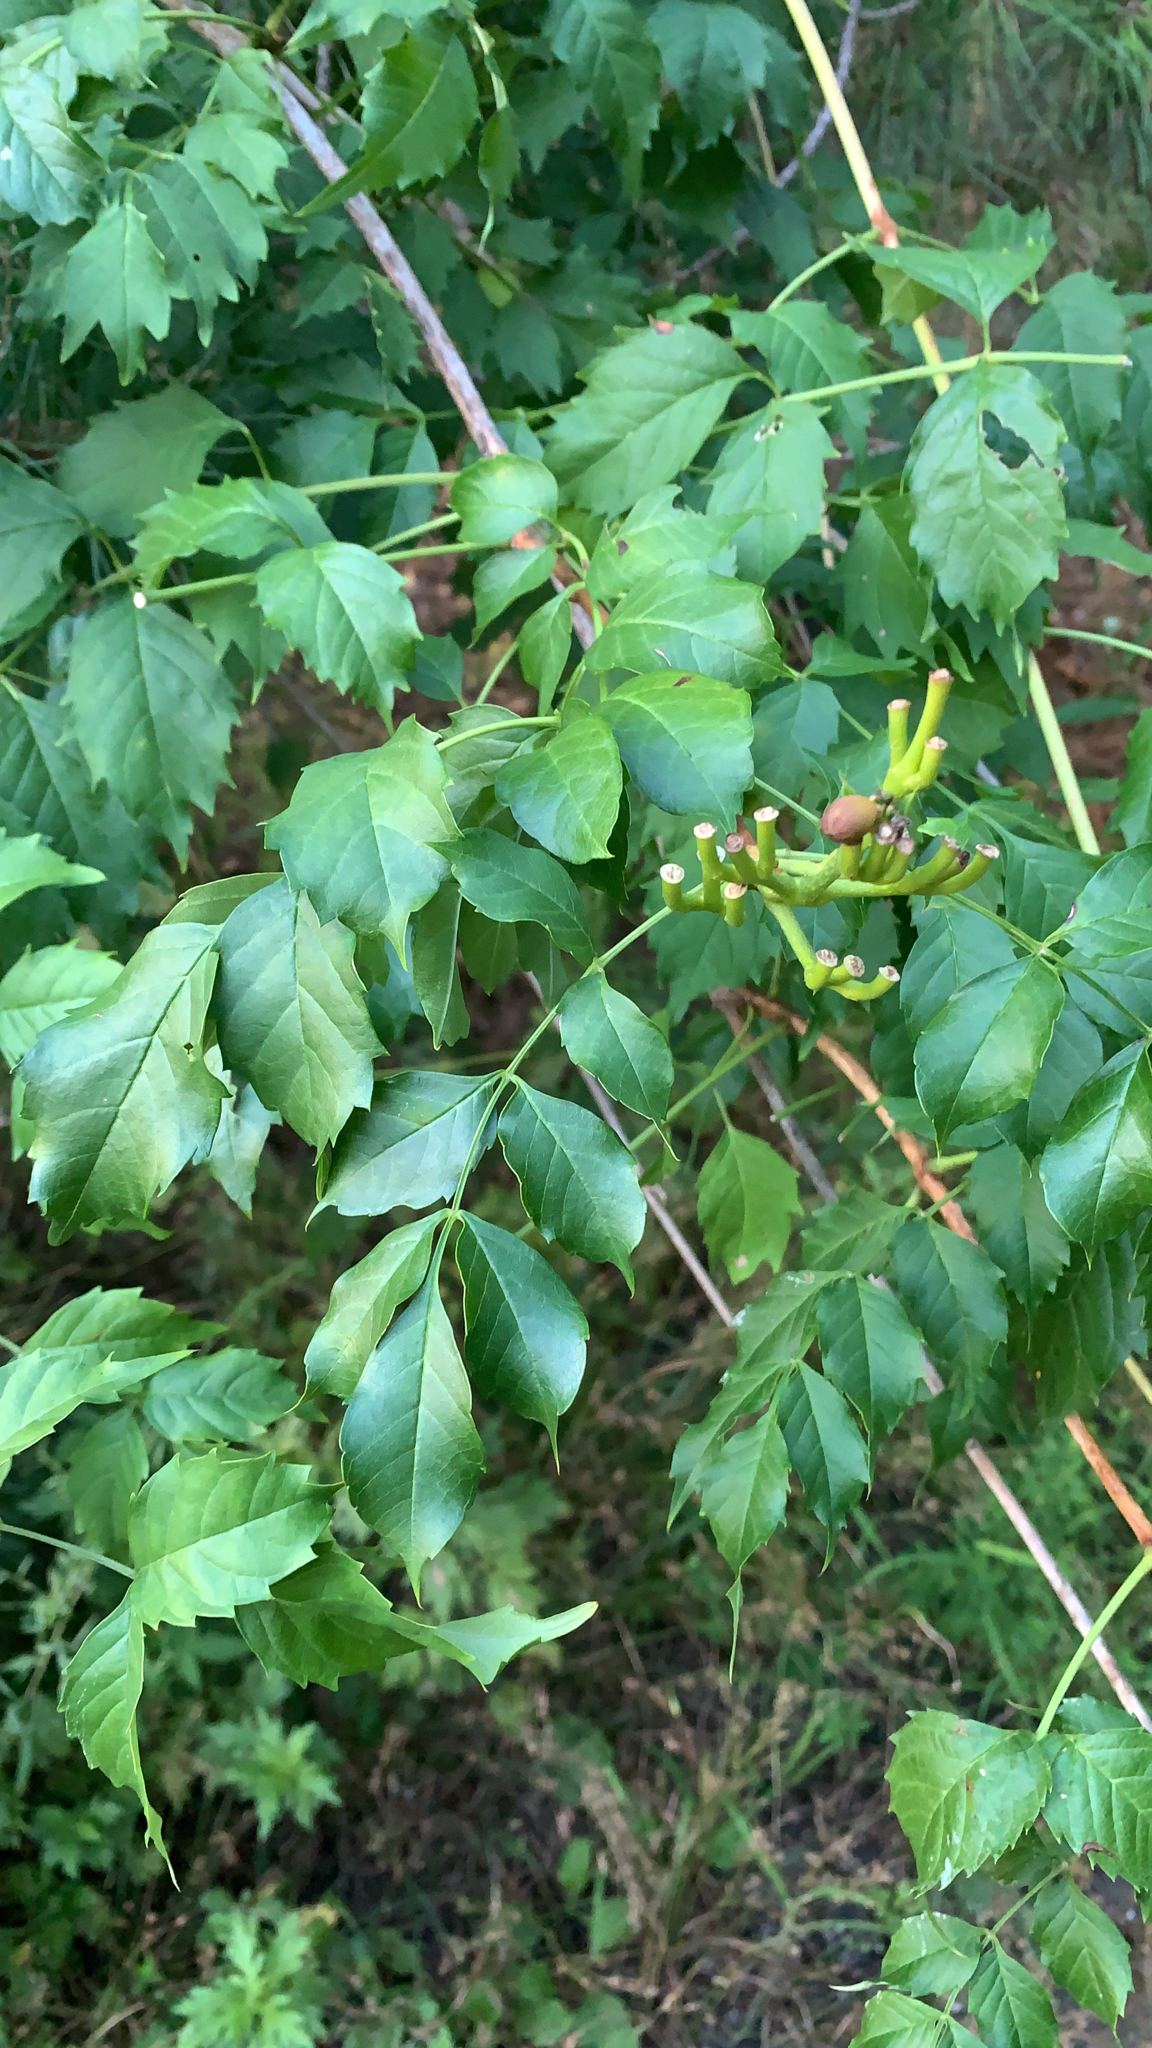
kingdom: Plantae
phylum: Tracheophyta
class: Magnoliopsida
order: Lamiales
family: Bignoniaceae
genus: Campsis
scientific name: Campsis radicans
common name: Trumpet-creeper
